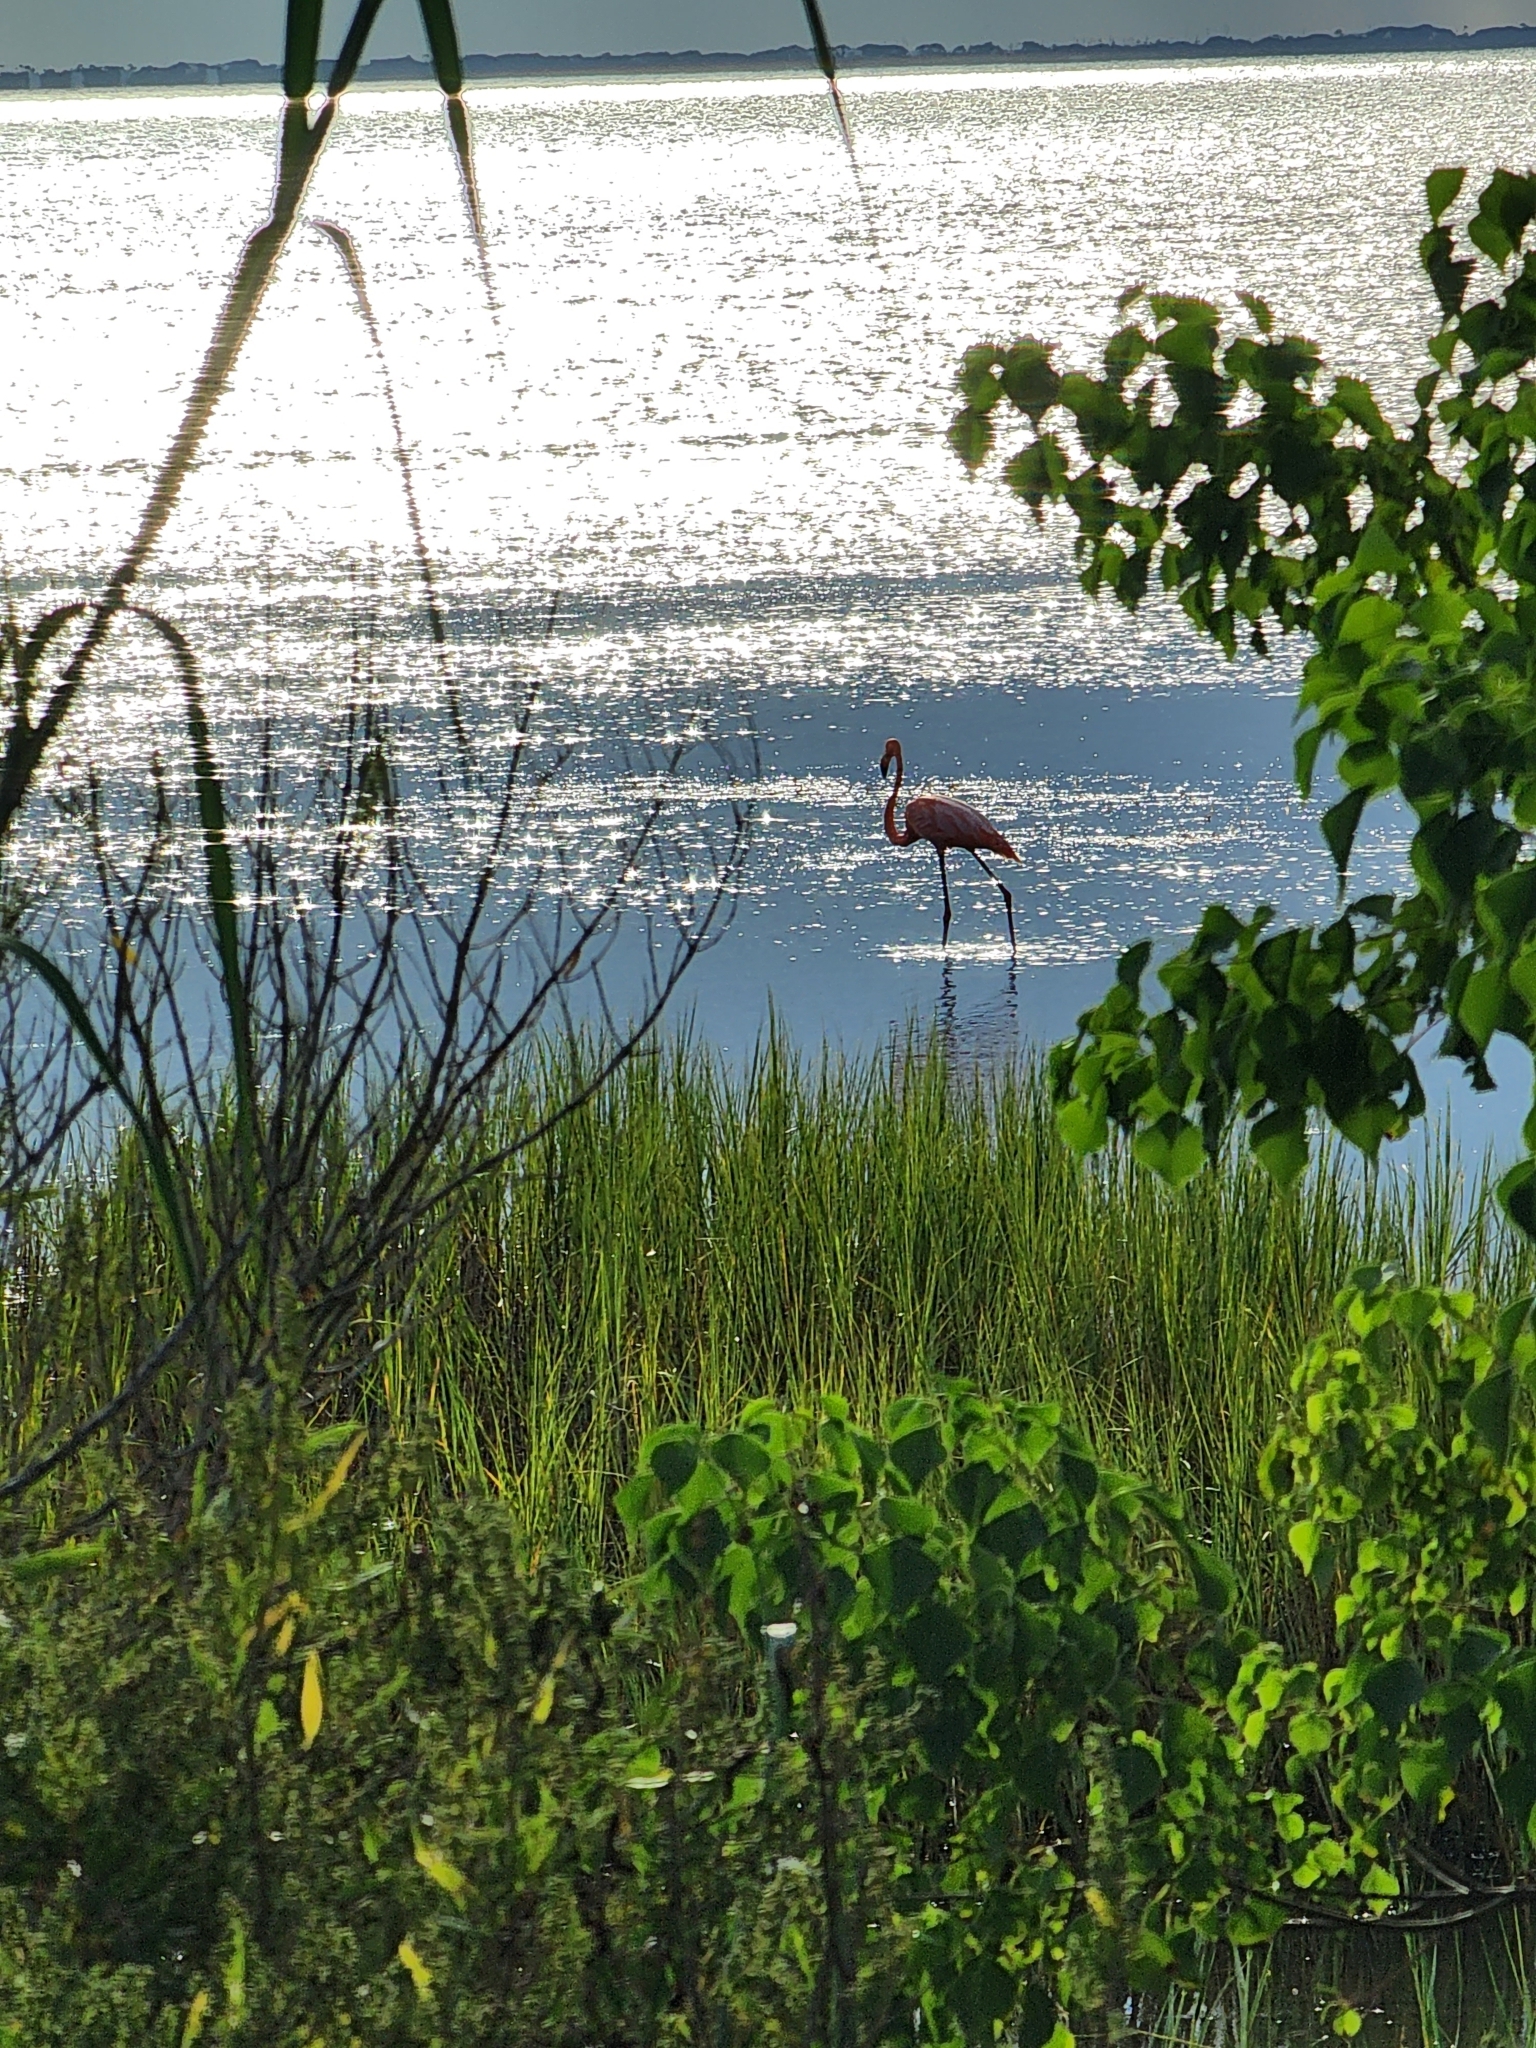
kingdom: Animalia
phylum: Chordata
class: Aves
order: Phoenicopteriformes
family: Phoenicopteridae
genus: Phoenicopterus
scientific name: Phoenicopterus ruber
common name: American flamingo
